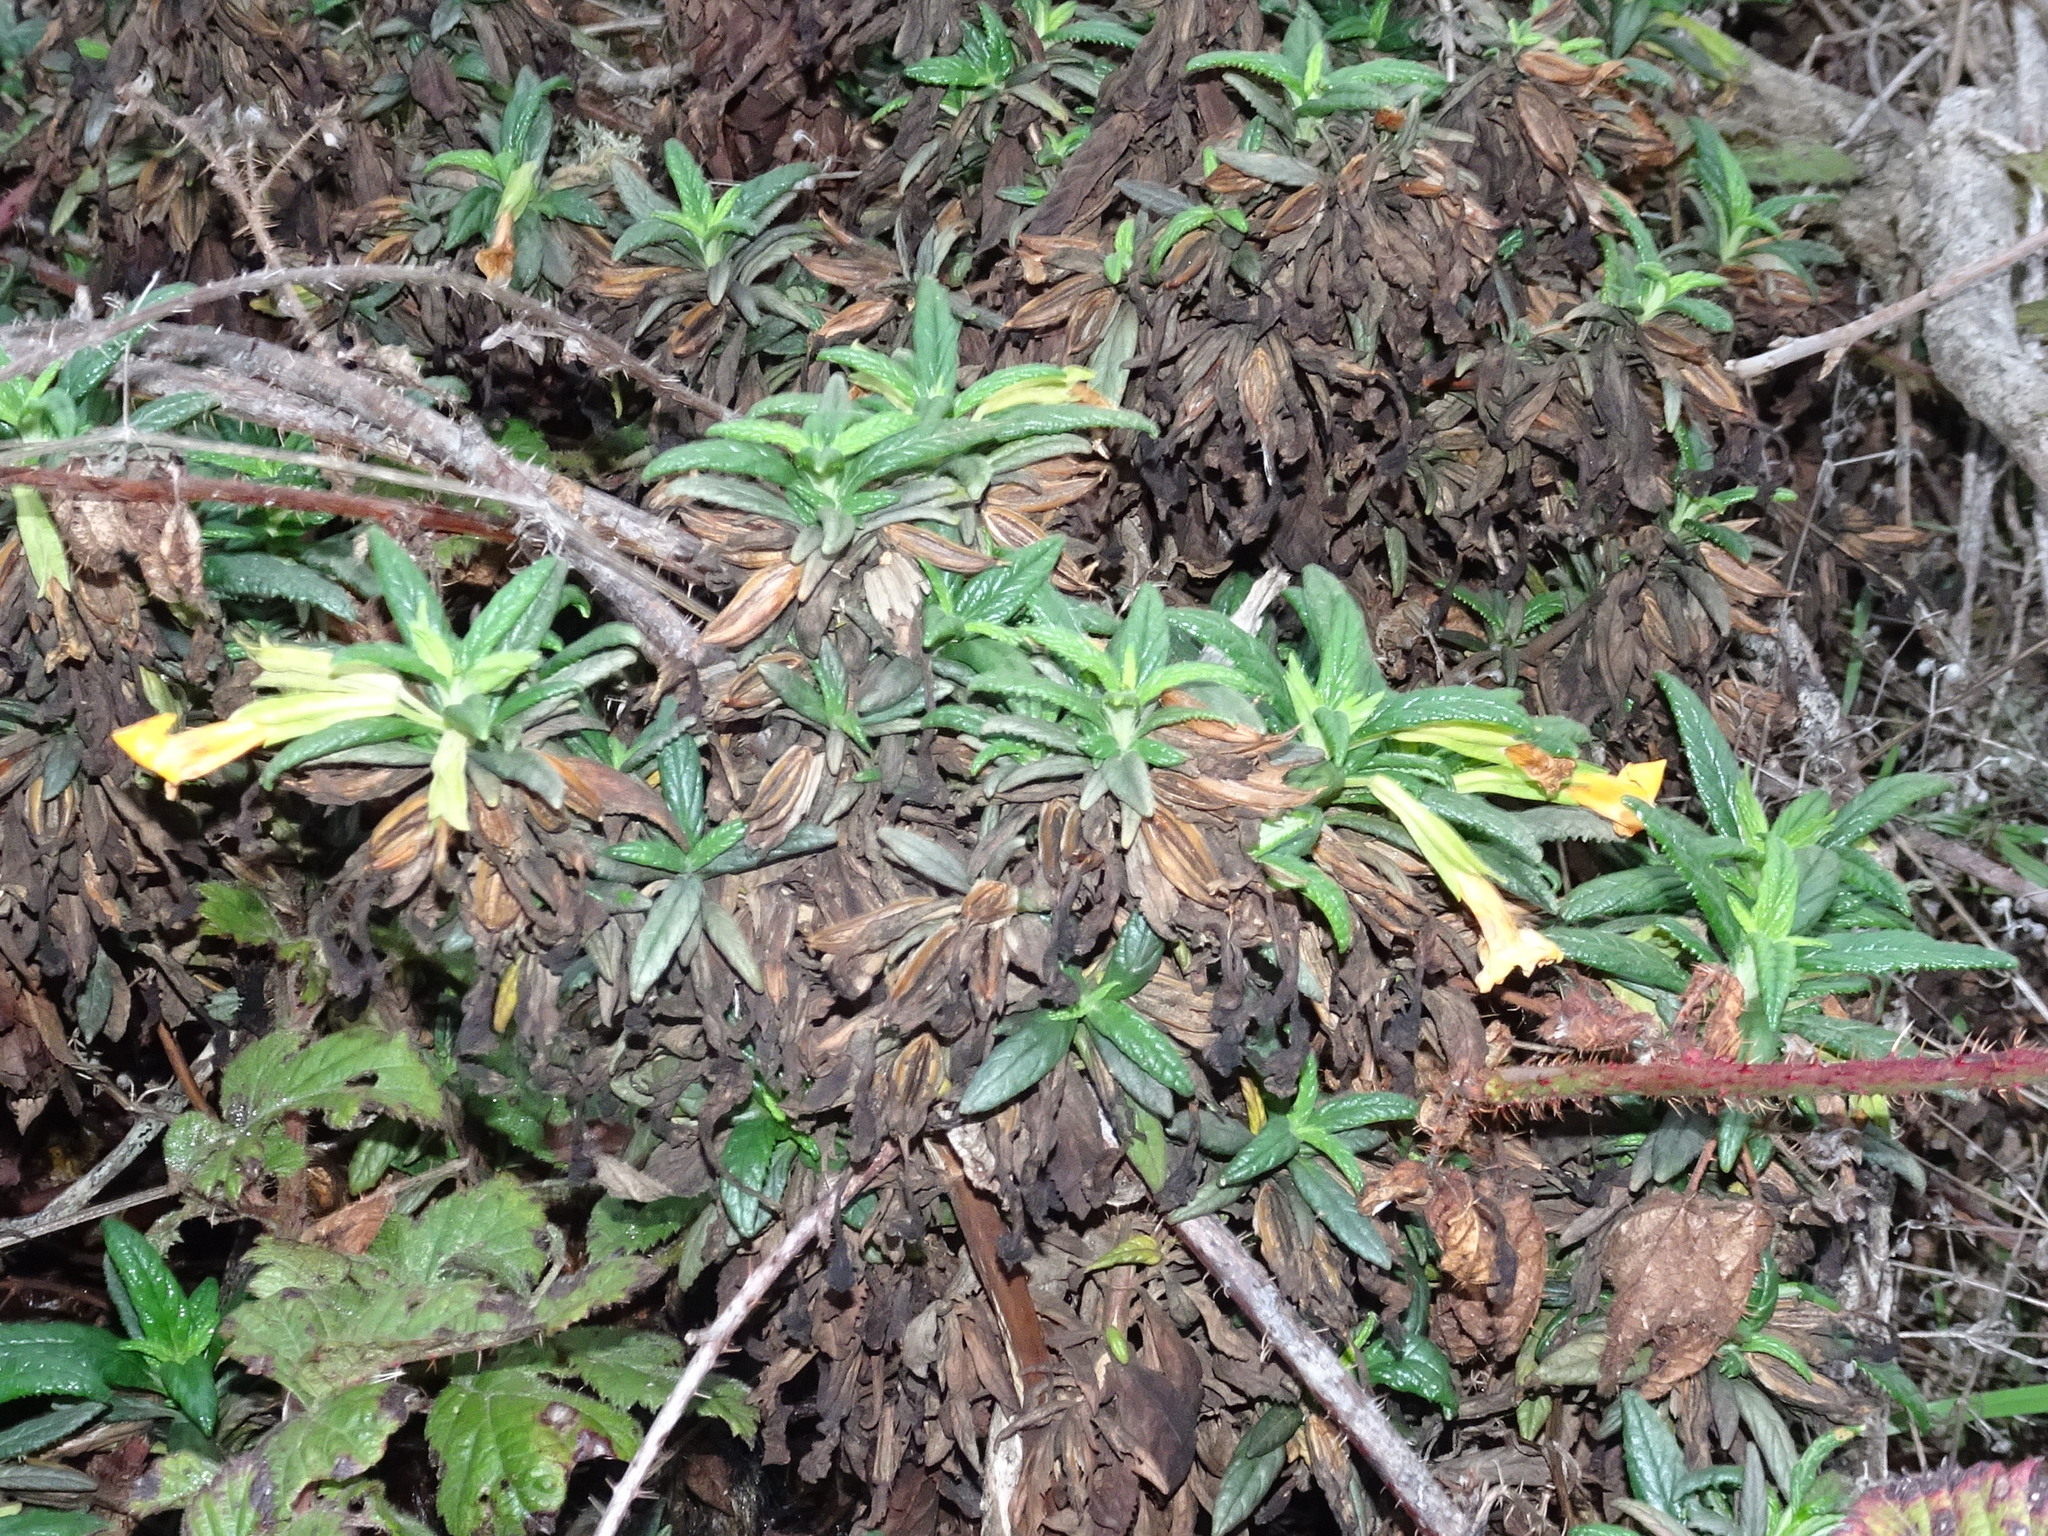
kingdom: Plantae
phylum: Tracheophyta
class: Magnoliopsida
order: Lamiales
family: Phrymaceae
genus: Diplacus
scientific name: Diplacus aurantiacus
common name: Bush monkey-flower
